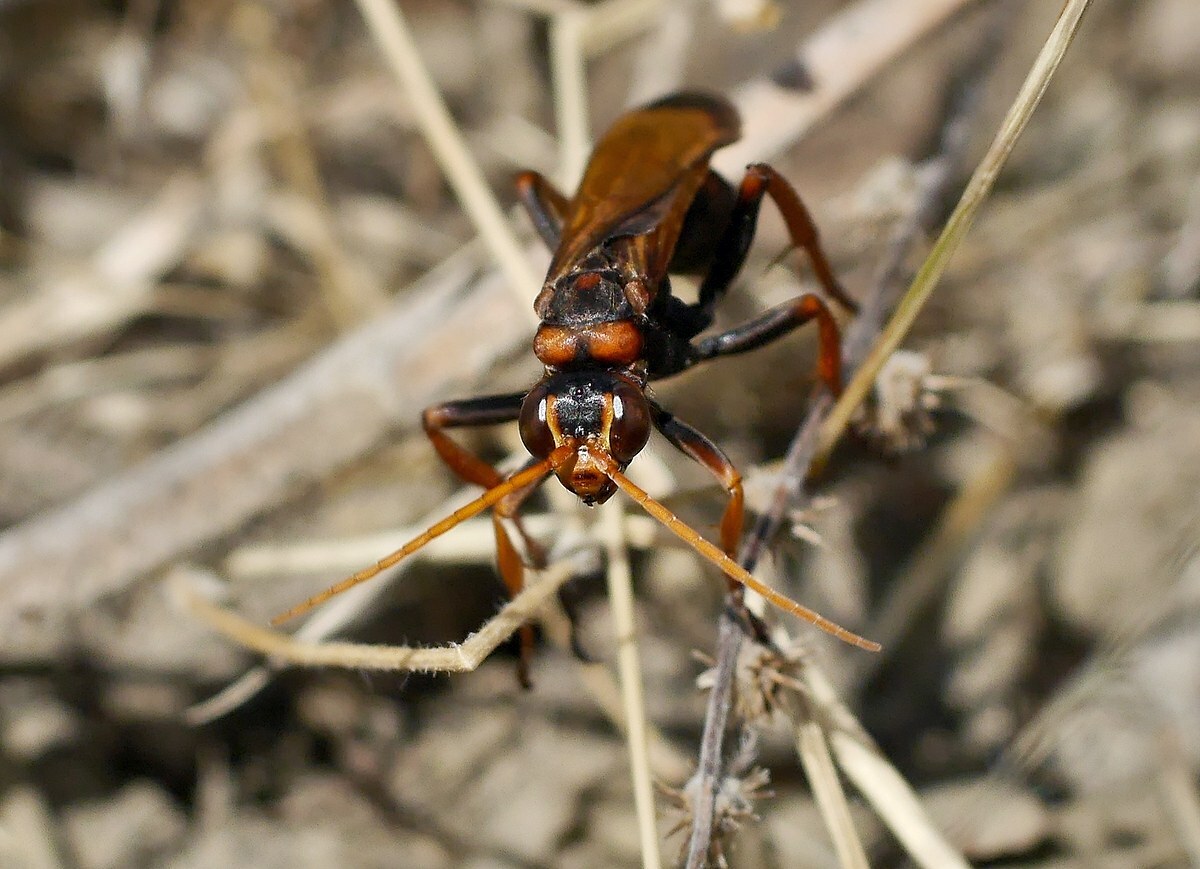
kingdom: Animalia
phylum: Arthropoda
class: Insecta
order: Hymenoptera
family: Pompilidae
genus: Cryptocheilus
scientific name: Cryptocheilus rubellus
